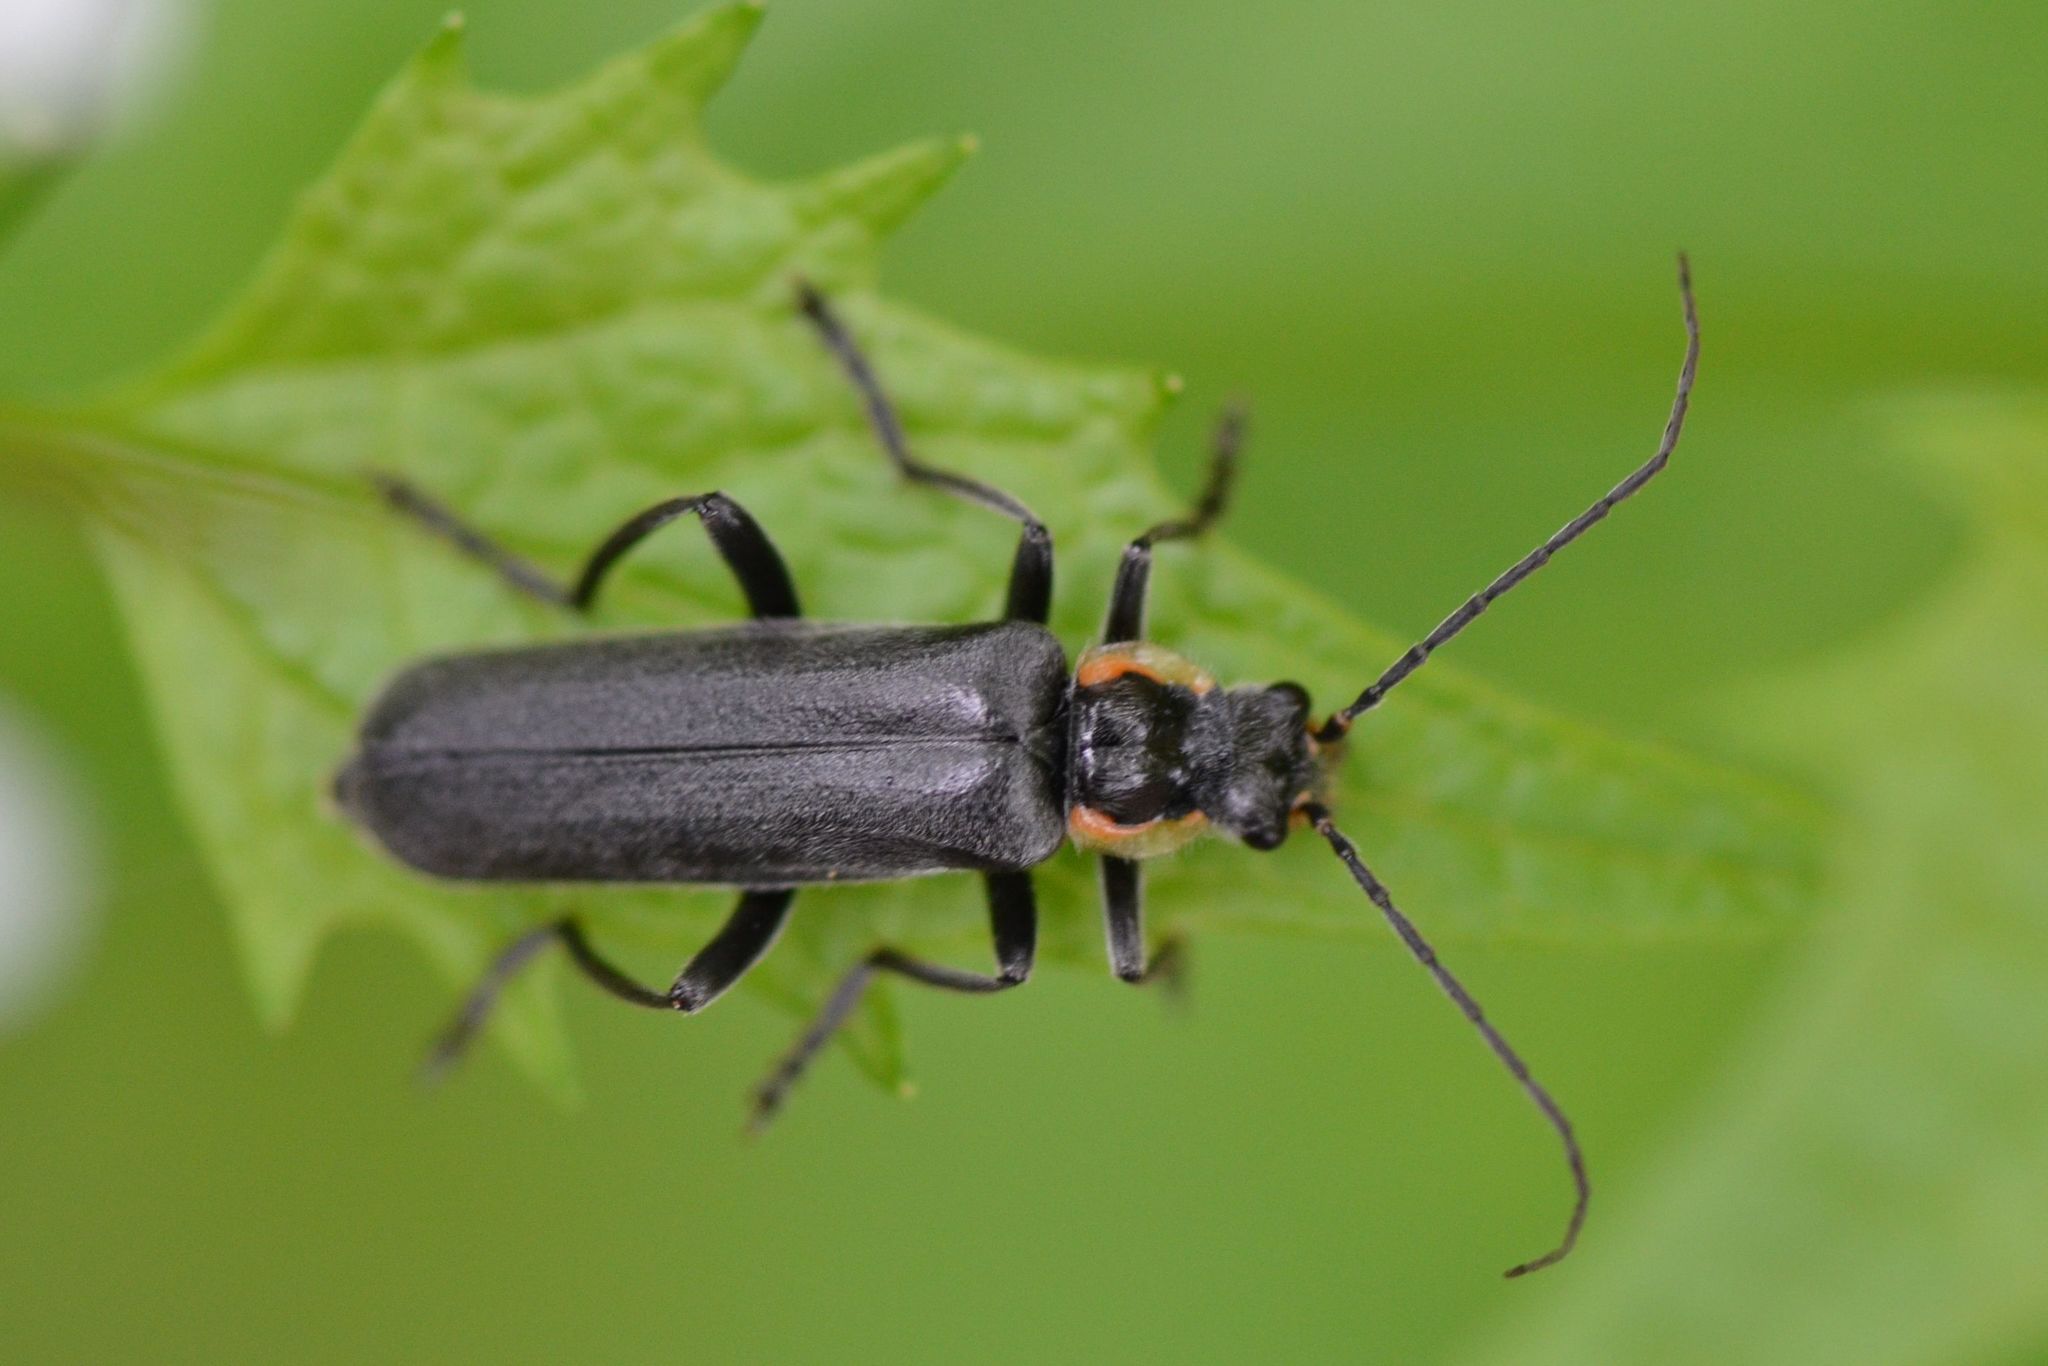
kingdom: Animalia
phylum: Arthropoda
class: Insecta
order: Coleoptera
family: Cantharidae
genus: Cantharis
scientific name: Cantharis obscura
